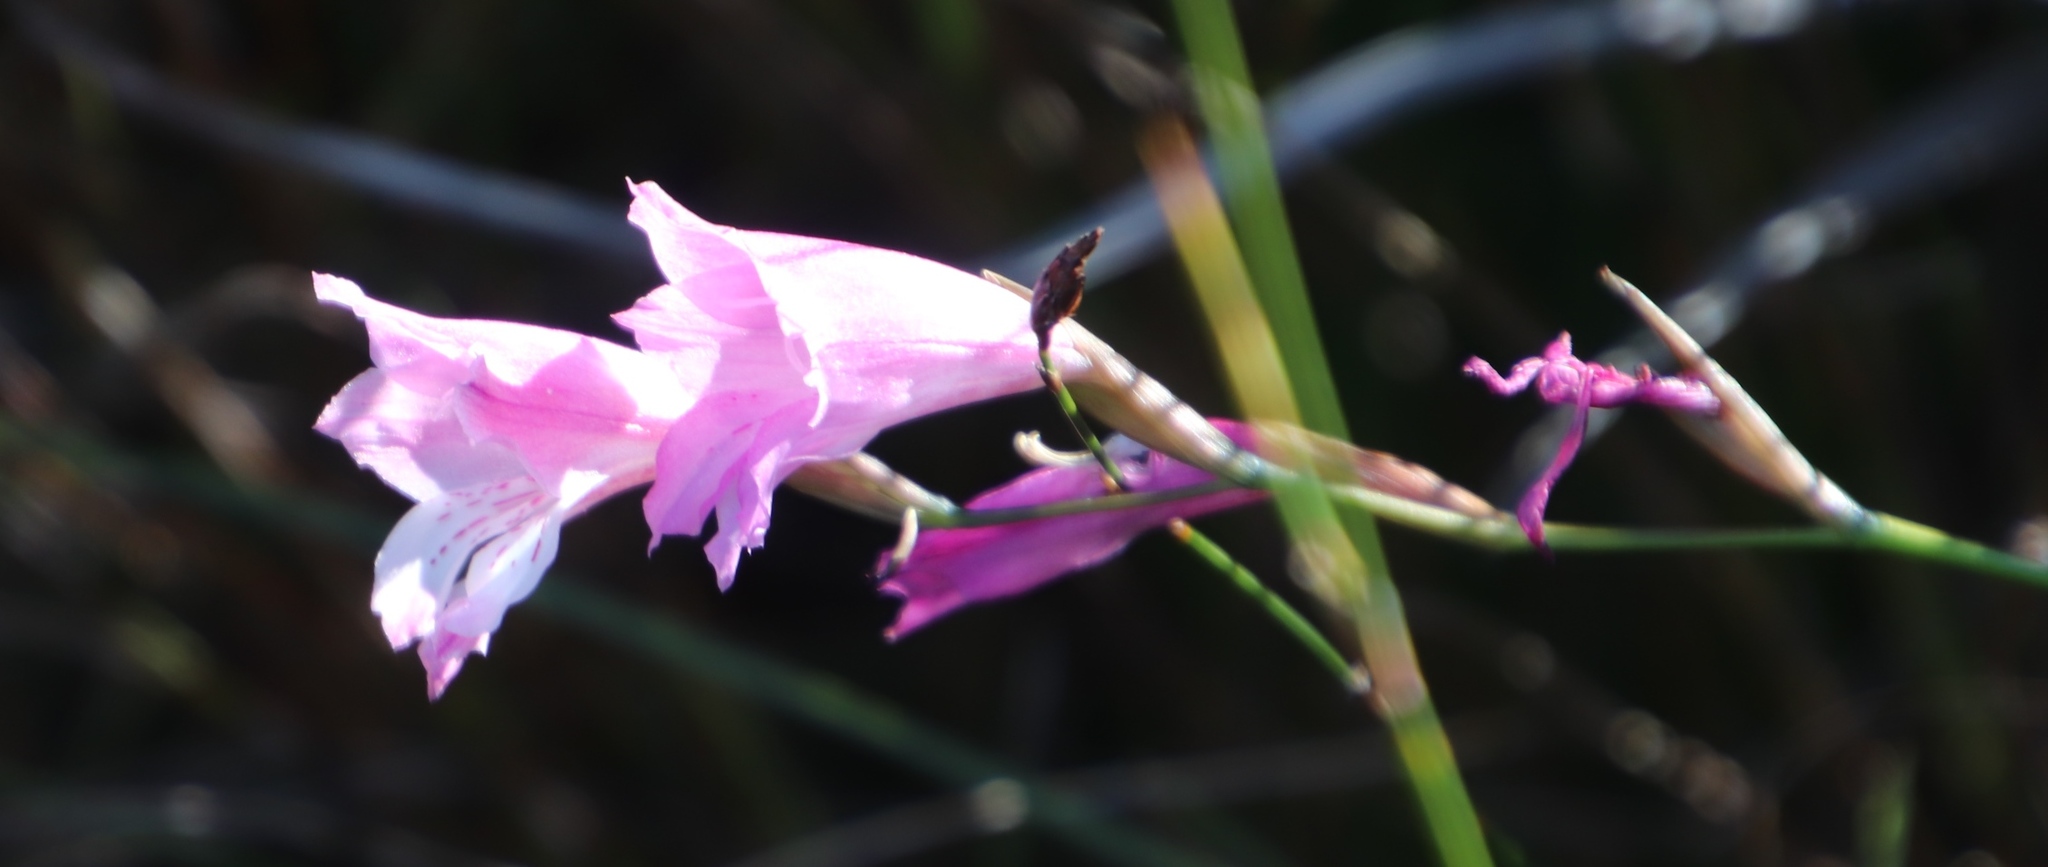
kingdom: Plantae
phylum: Tracheophyta
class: Liliopsida
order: Asparagales
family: Iridaceae
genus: Gladiolus
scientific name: Gladiolus hirsutus
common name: Small pink afrikaner
